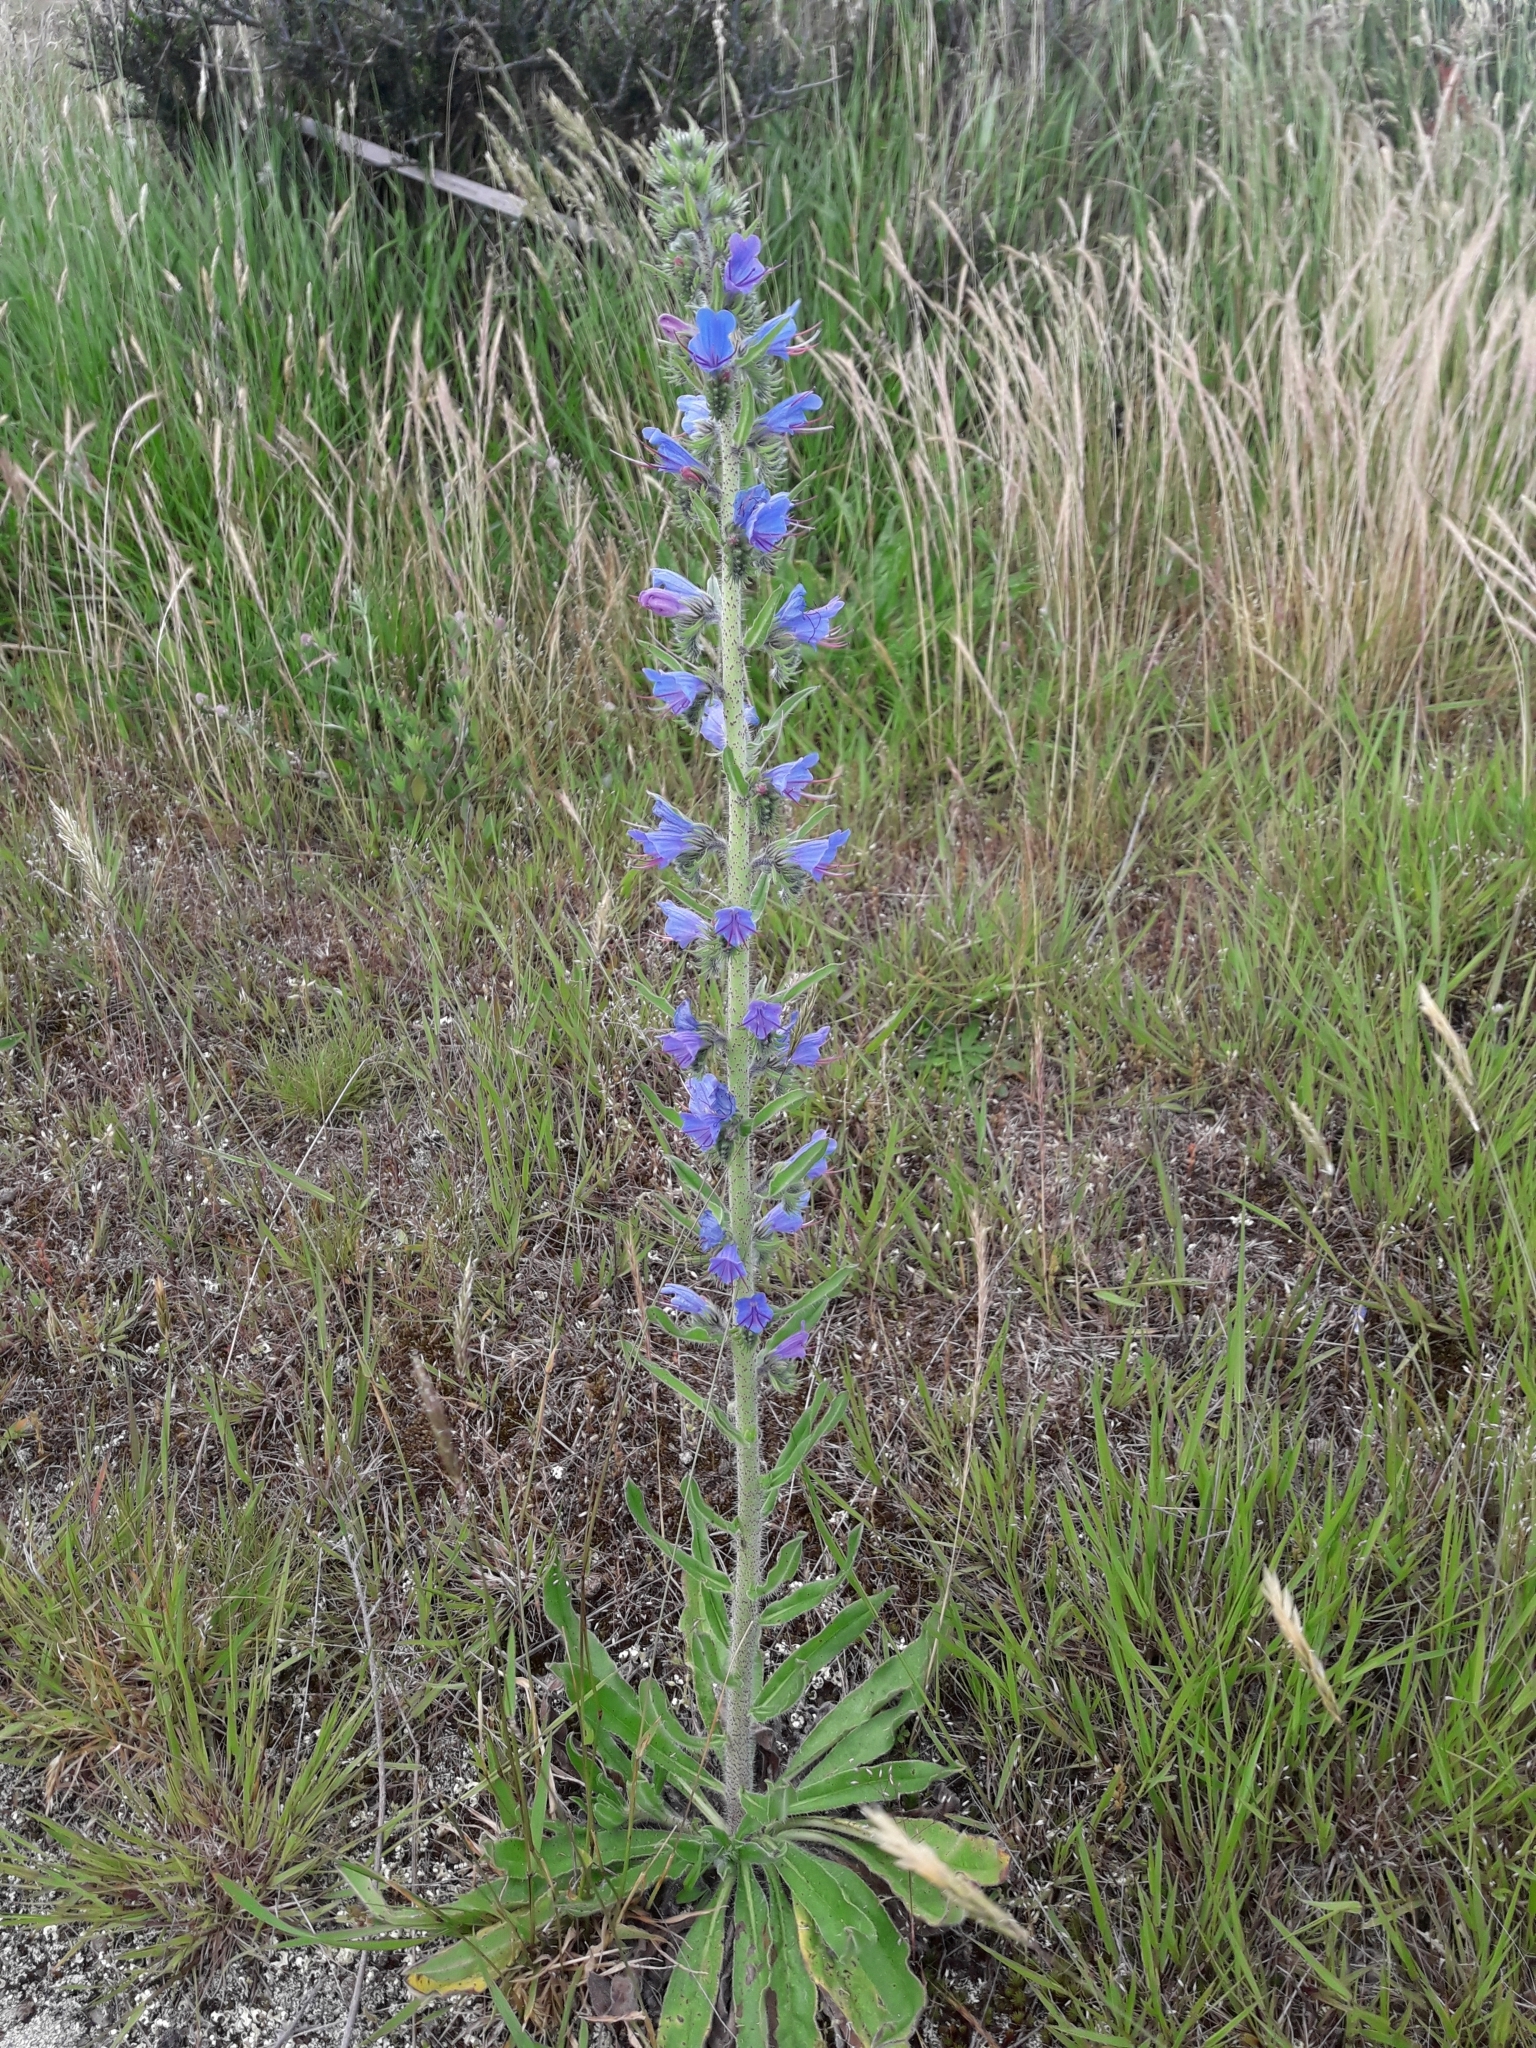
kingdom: Plantae
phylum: Tracheophyta
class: Magnoliopsida
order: Boraginales
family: Boraginaceae
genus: Echium
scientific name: Echium vulgare
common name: Common viper's bugloss
